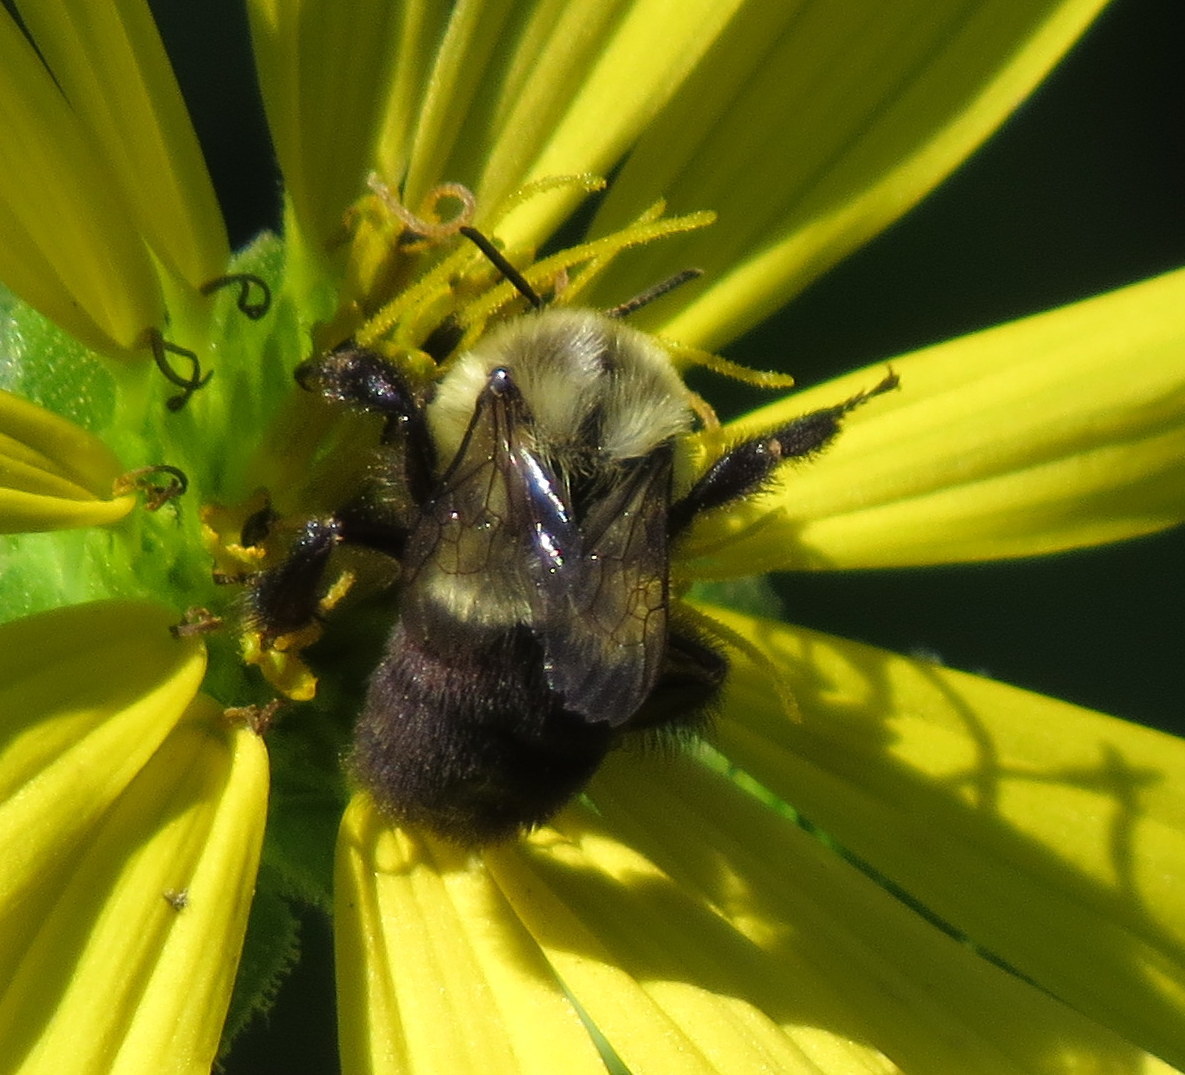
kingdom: Animalia
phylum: Arthropoda
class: Insecta
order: Hymenoptera
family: Apidae
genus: Bombus
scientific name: Bombus impatiens
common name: Common eastern bumble bee
